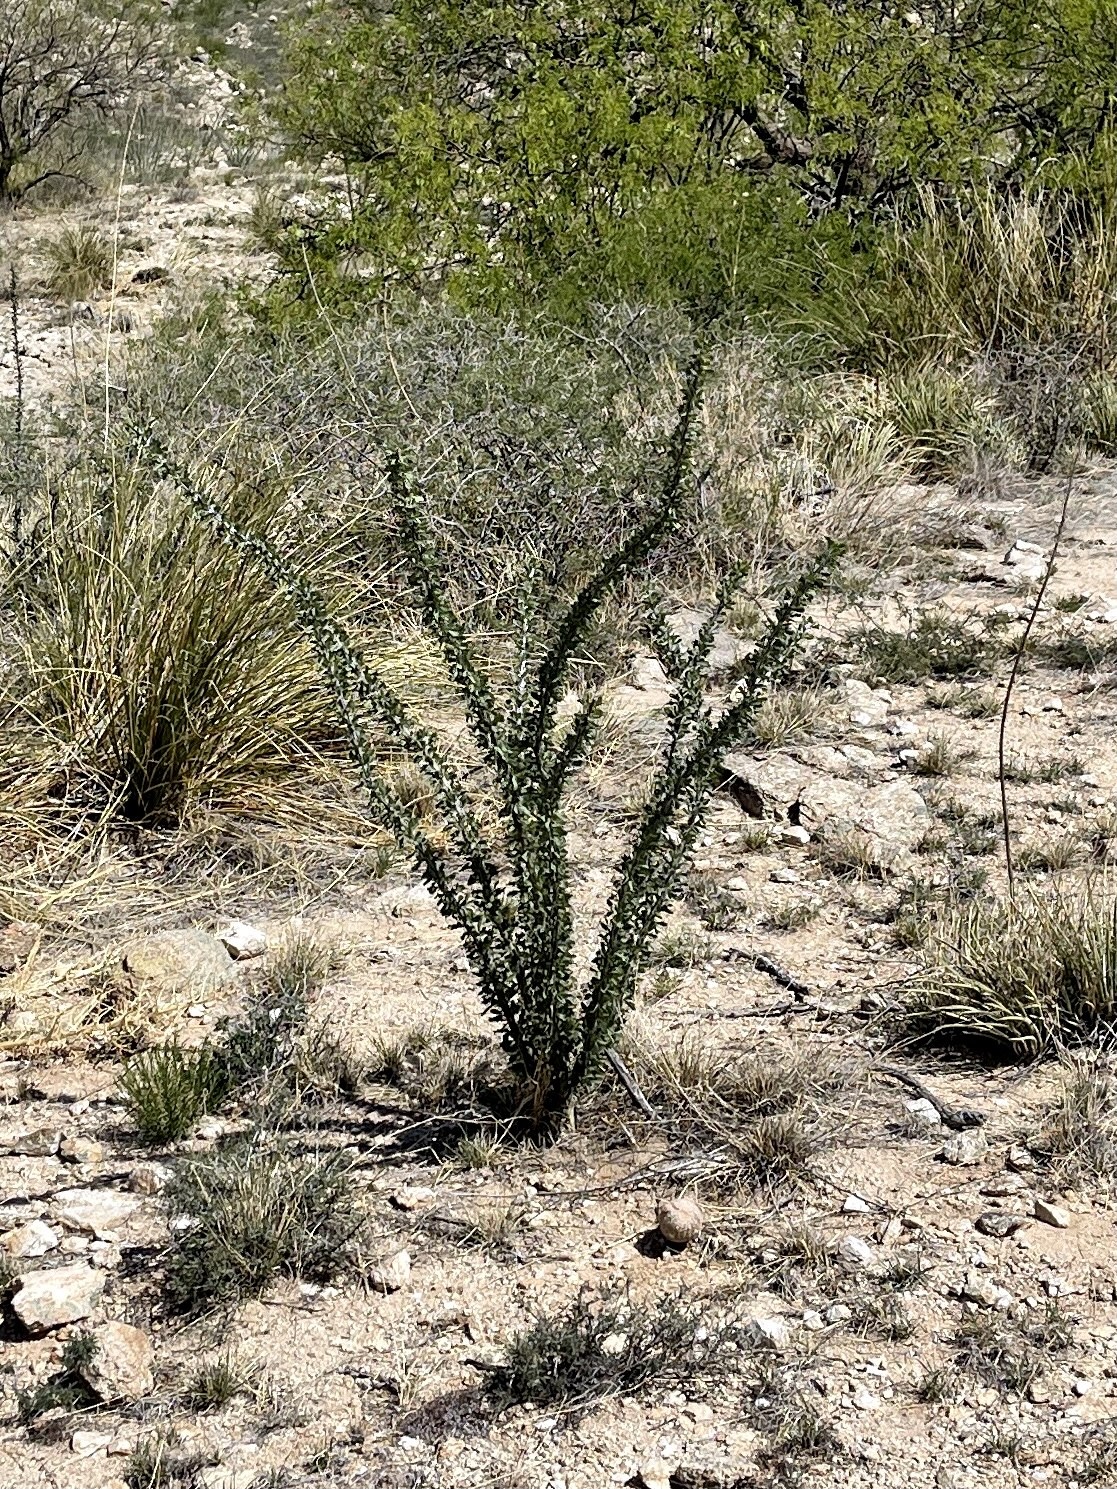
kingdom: Plantae
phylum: Tracheophyta
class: Magnoliopsida
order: Ericales
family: Fouquieriaceae
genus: Fouquieria
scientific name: Fouquieria splendens
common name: Vine-cactus
